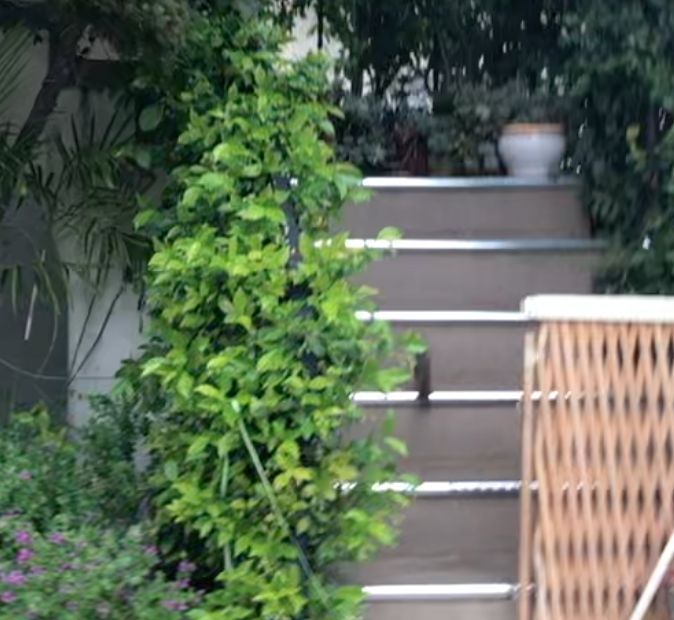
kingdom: Animalia
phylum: Chordata
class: Aves
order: Passeriformes
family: Passerellidae
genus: Melozone
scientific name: Melozone crissalis
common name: California towhee
